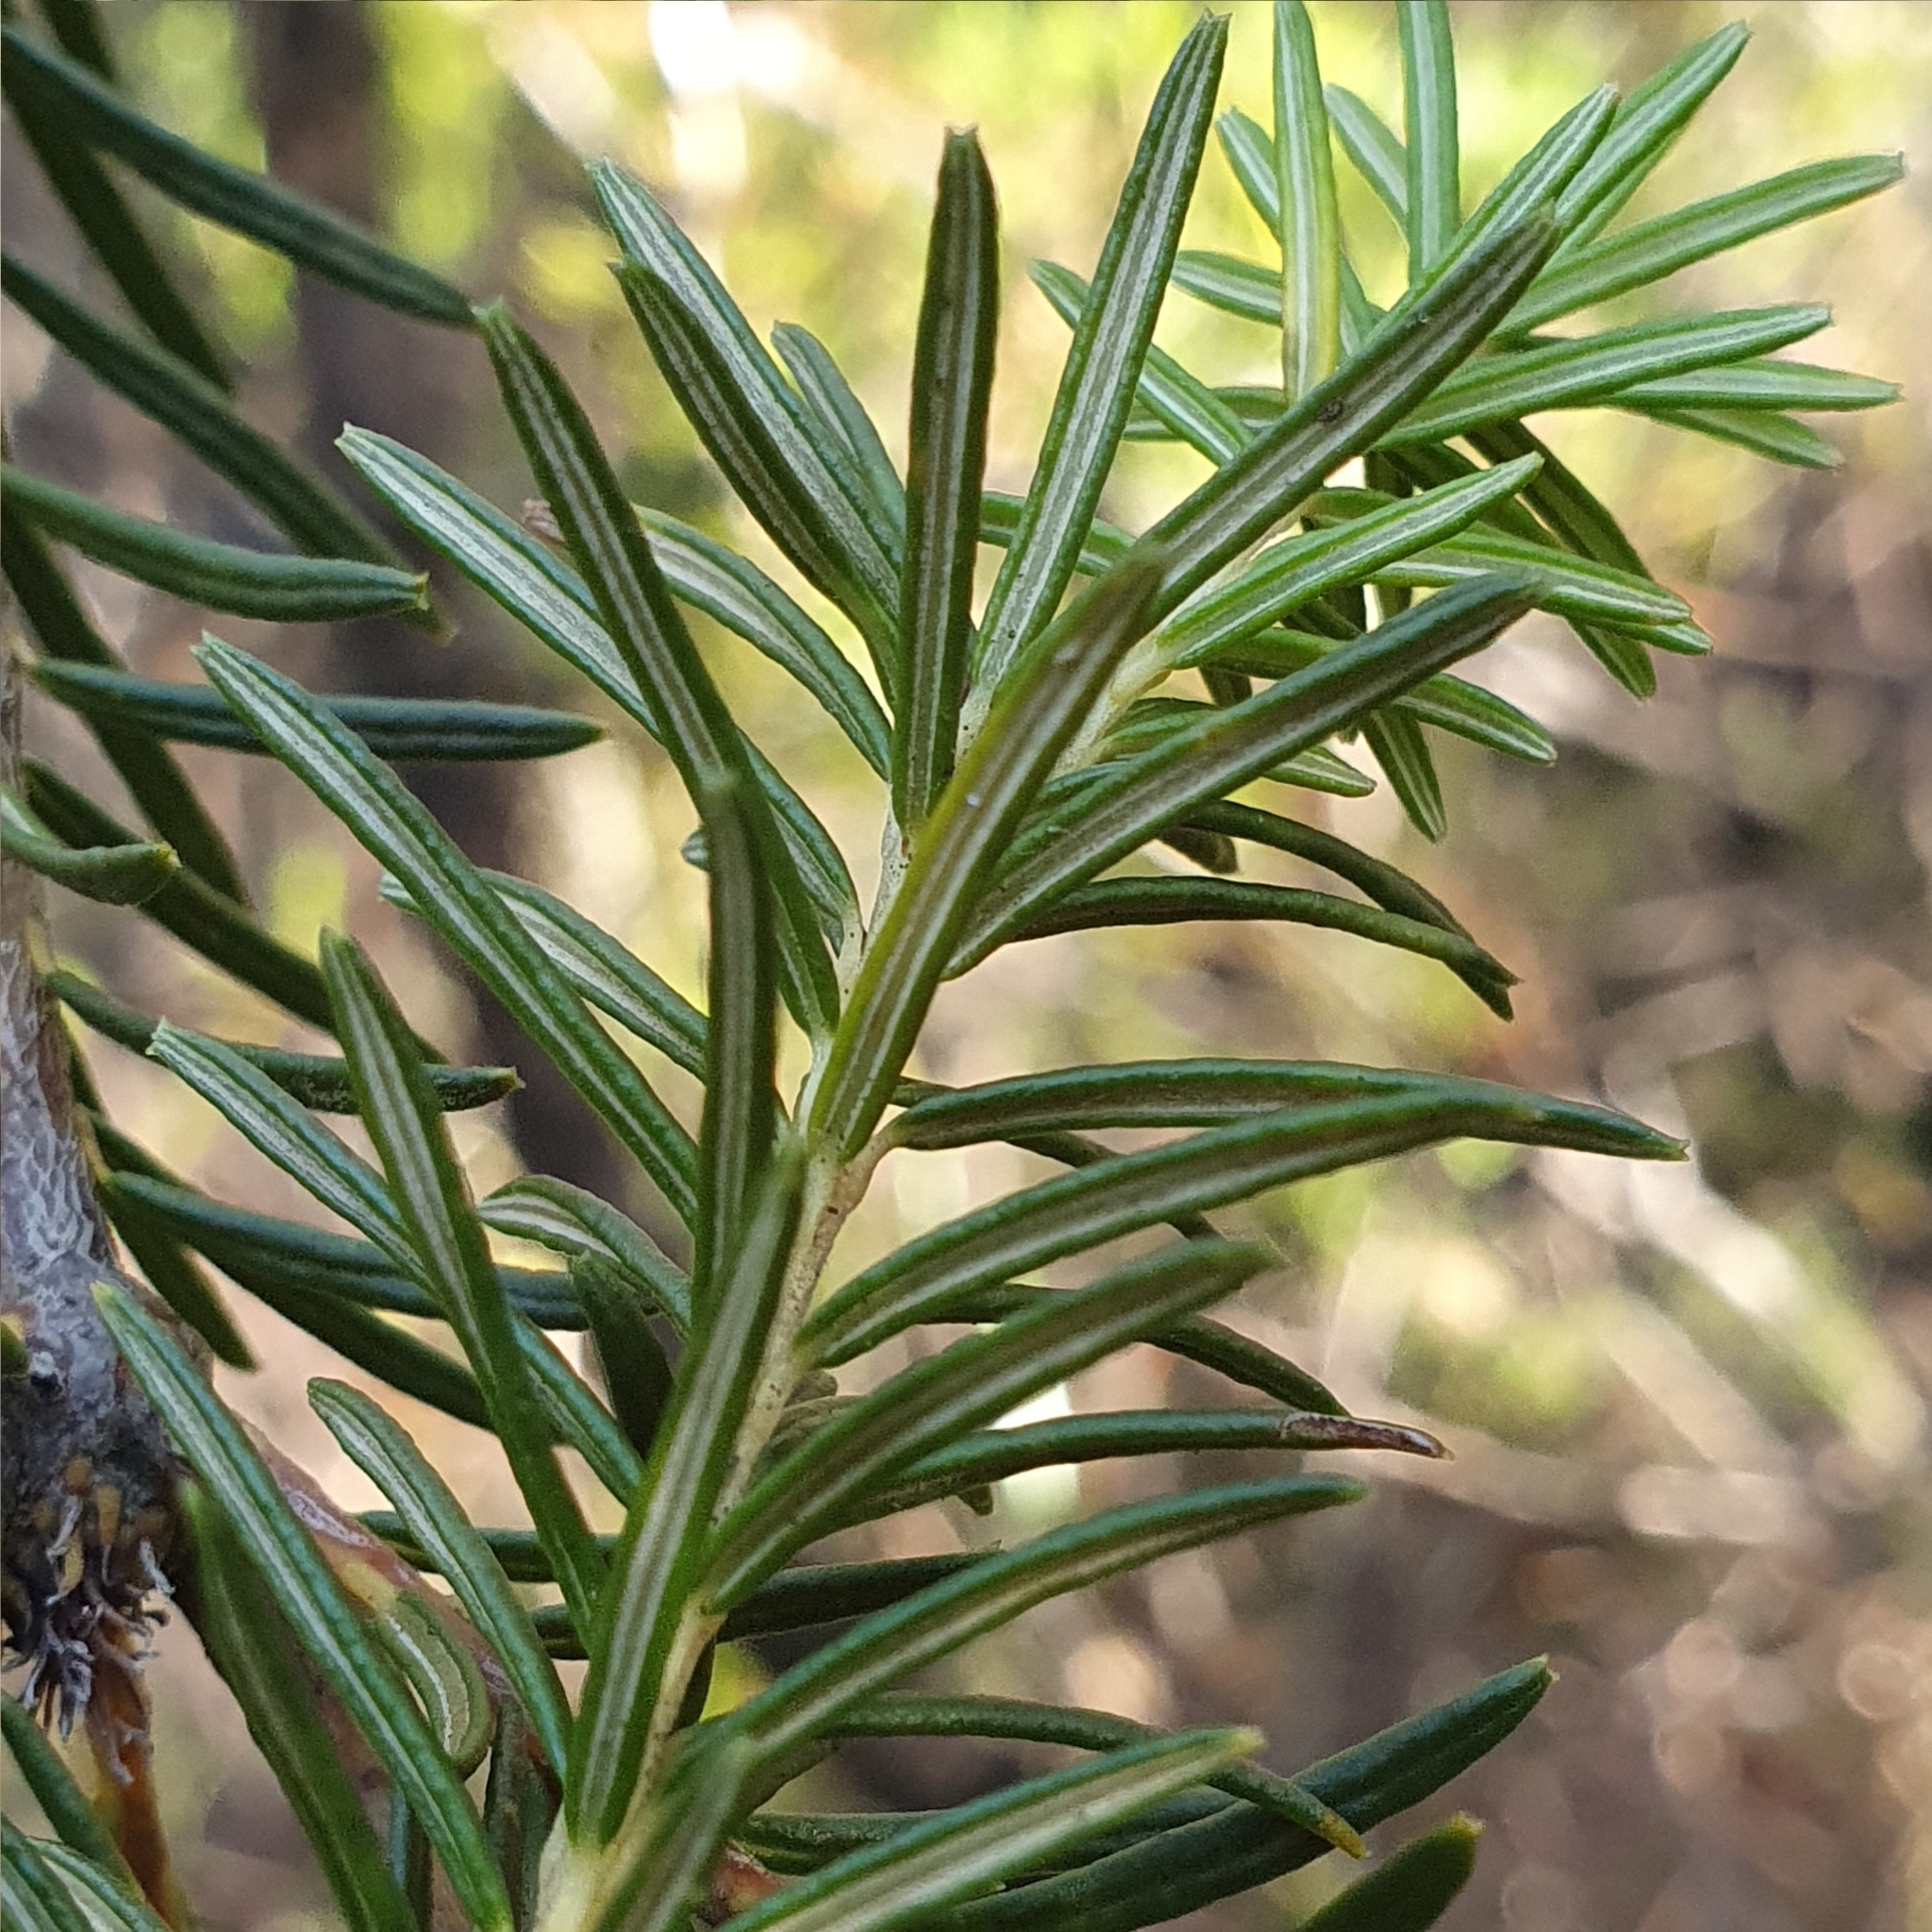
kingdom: Plantae
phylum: Tracheophyta
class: Magnoliopsida
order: Proteales
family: Proteaceae
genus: Banksia
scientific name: Banksia ericifolia
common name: Heath-leaf banksia
